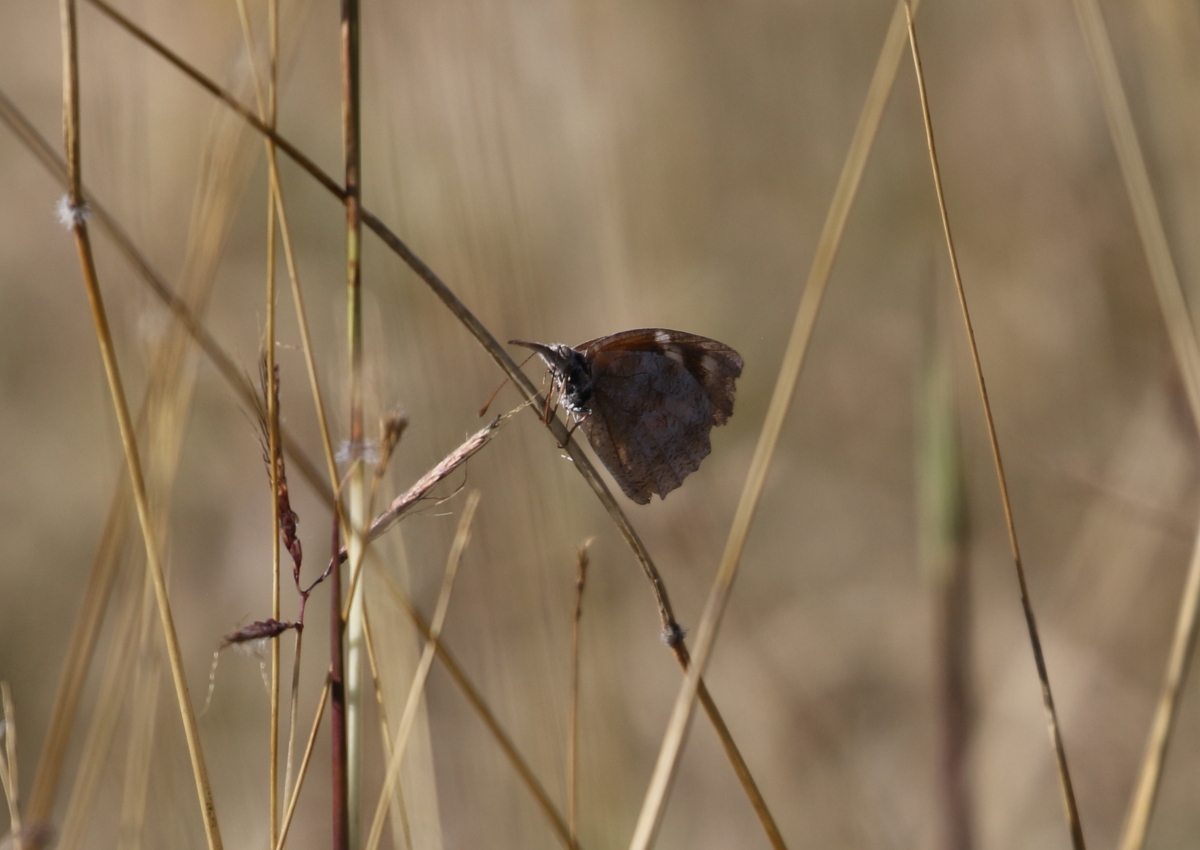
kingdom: Animalia
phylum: Arthropoda
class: Insecta
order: Lepidoptera
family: Nymphalidae
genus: Libytheana
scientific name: Libytheana carinenta
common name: American snout
